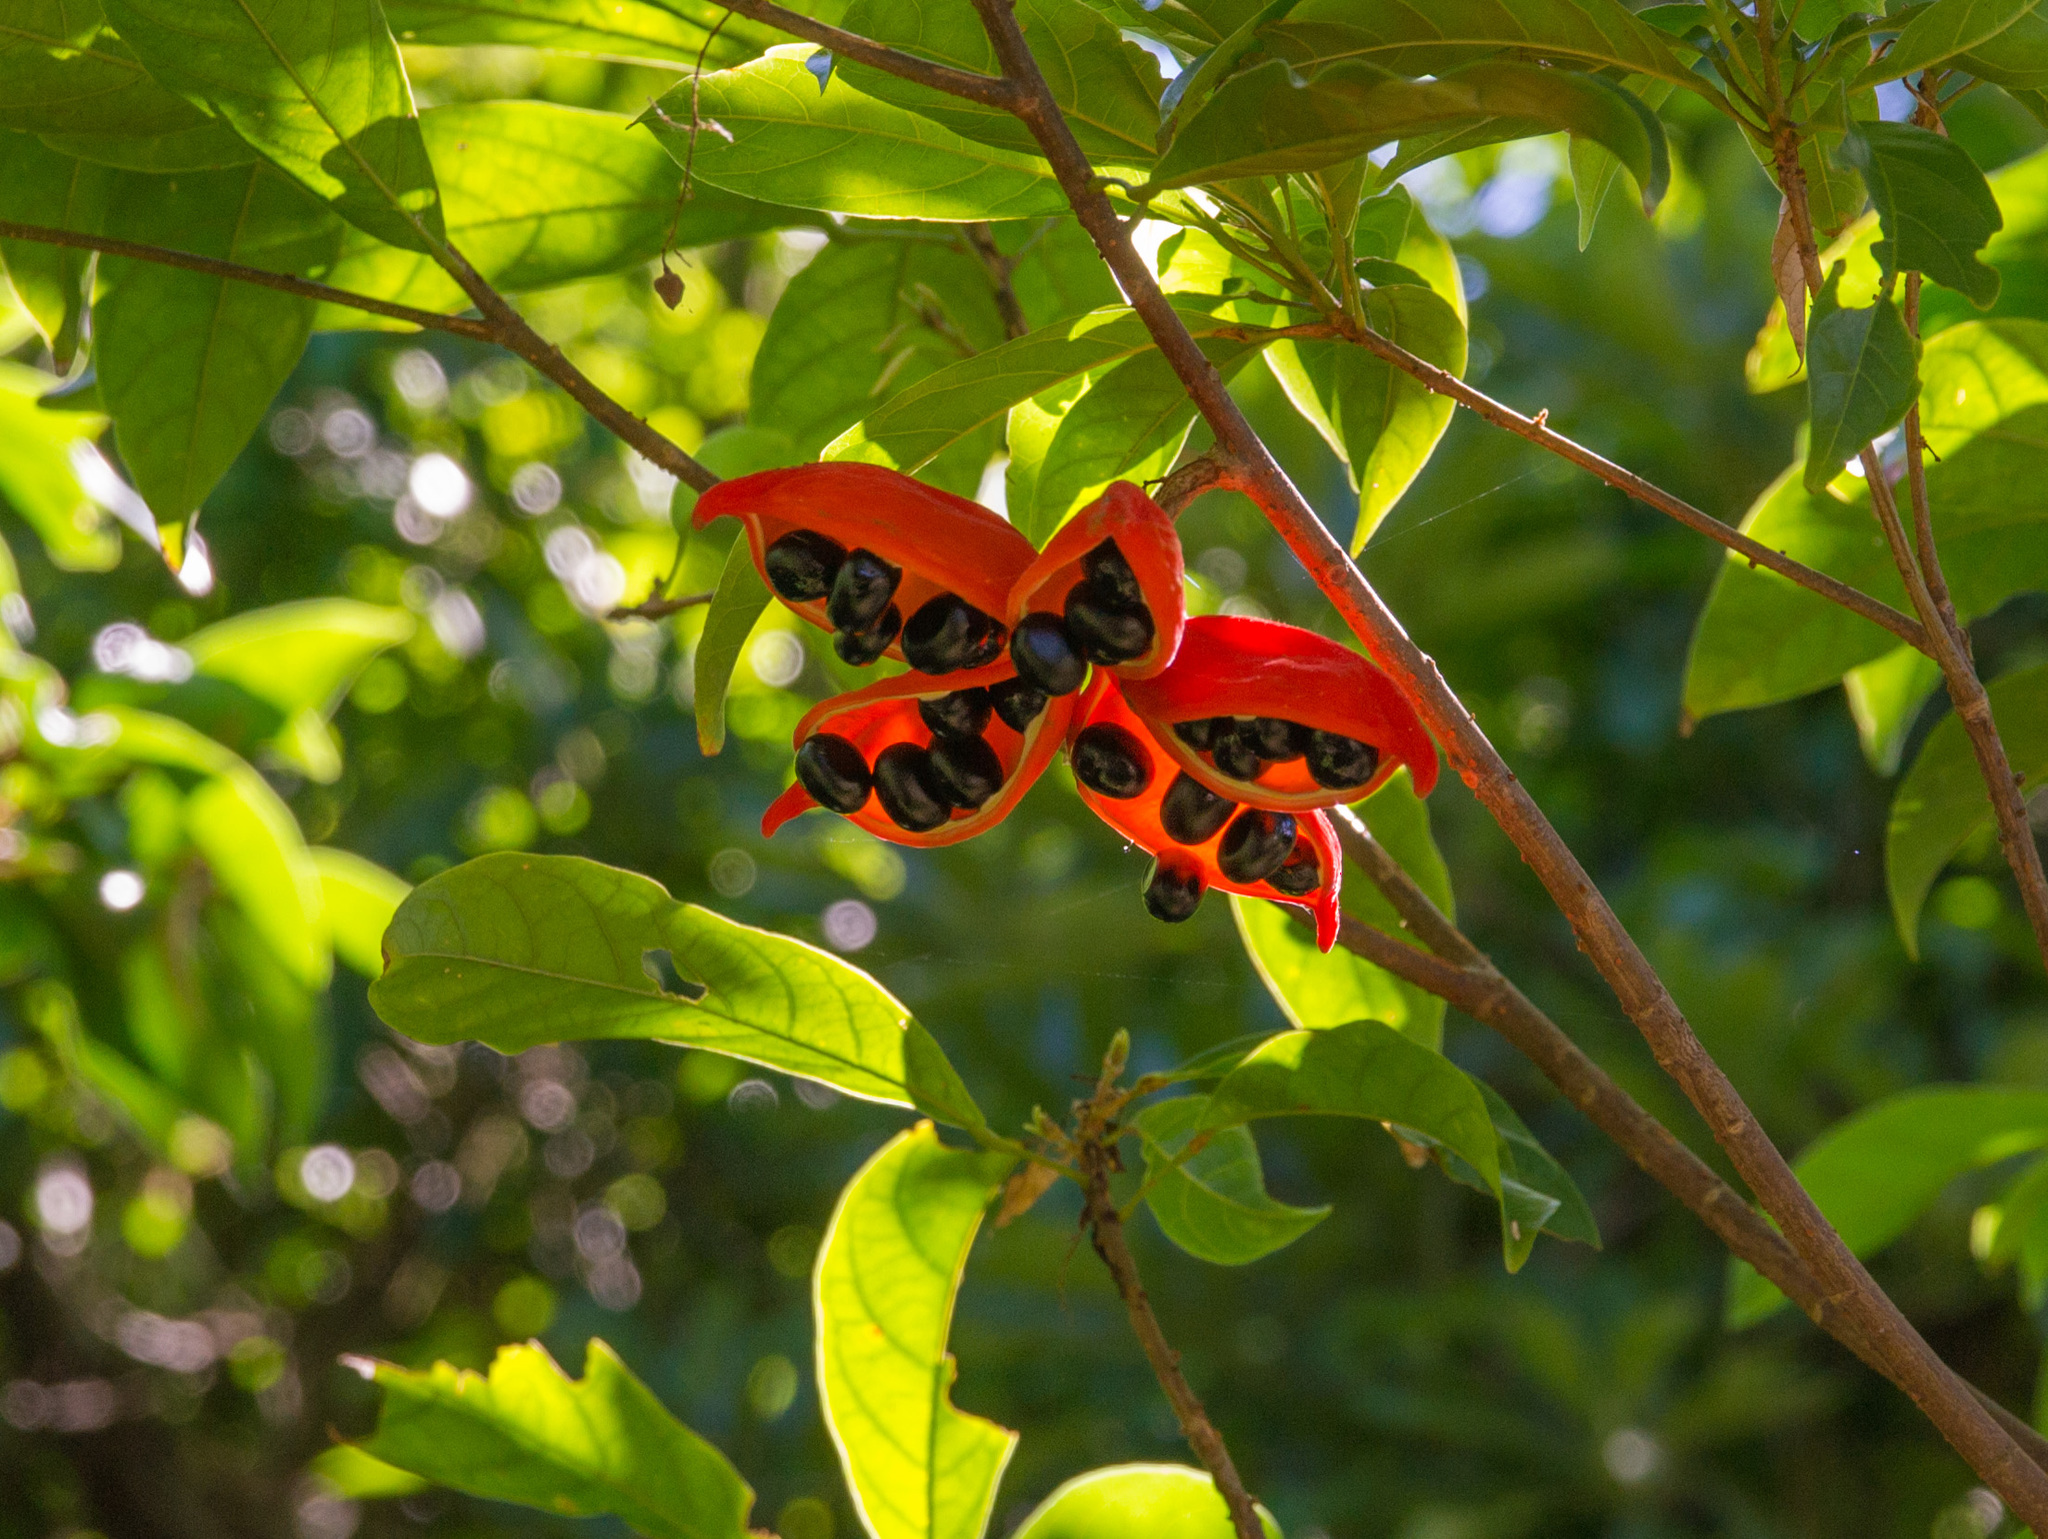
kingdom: Plantae
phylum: Tracheophyta
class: Magnoliopsida
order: Malvales
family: Malvaceae
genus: Sterculia
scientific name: Sterculia lanceolata
